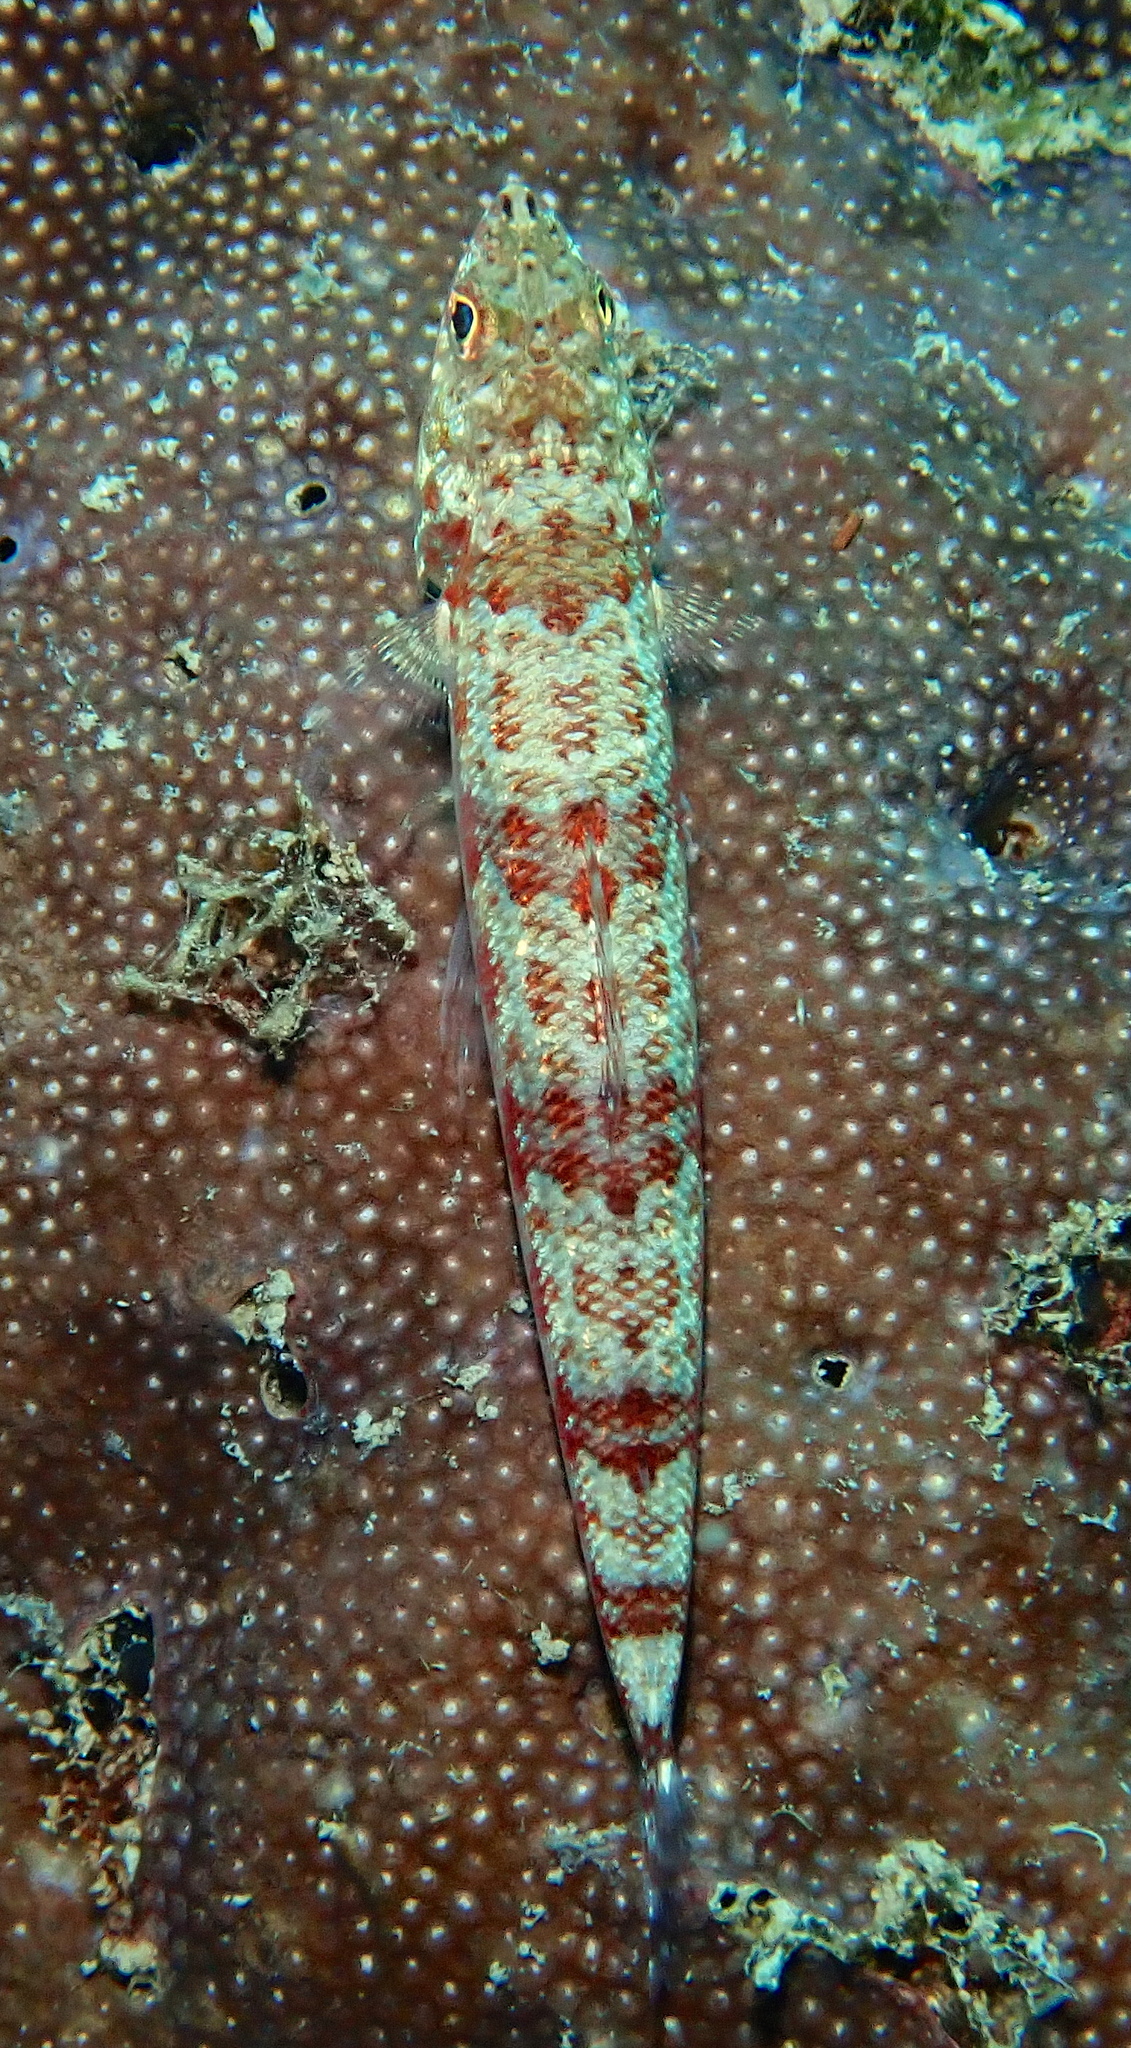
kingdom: Animalia
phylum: Chordata
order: Aulopiformes
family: Synodontidae
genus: Synodus
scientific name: Synodus variegatus
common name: Variegated lizardfish
